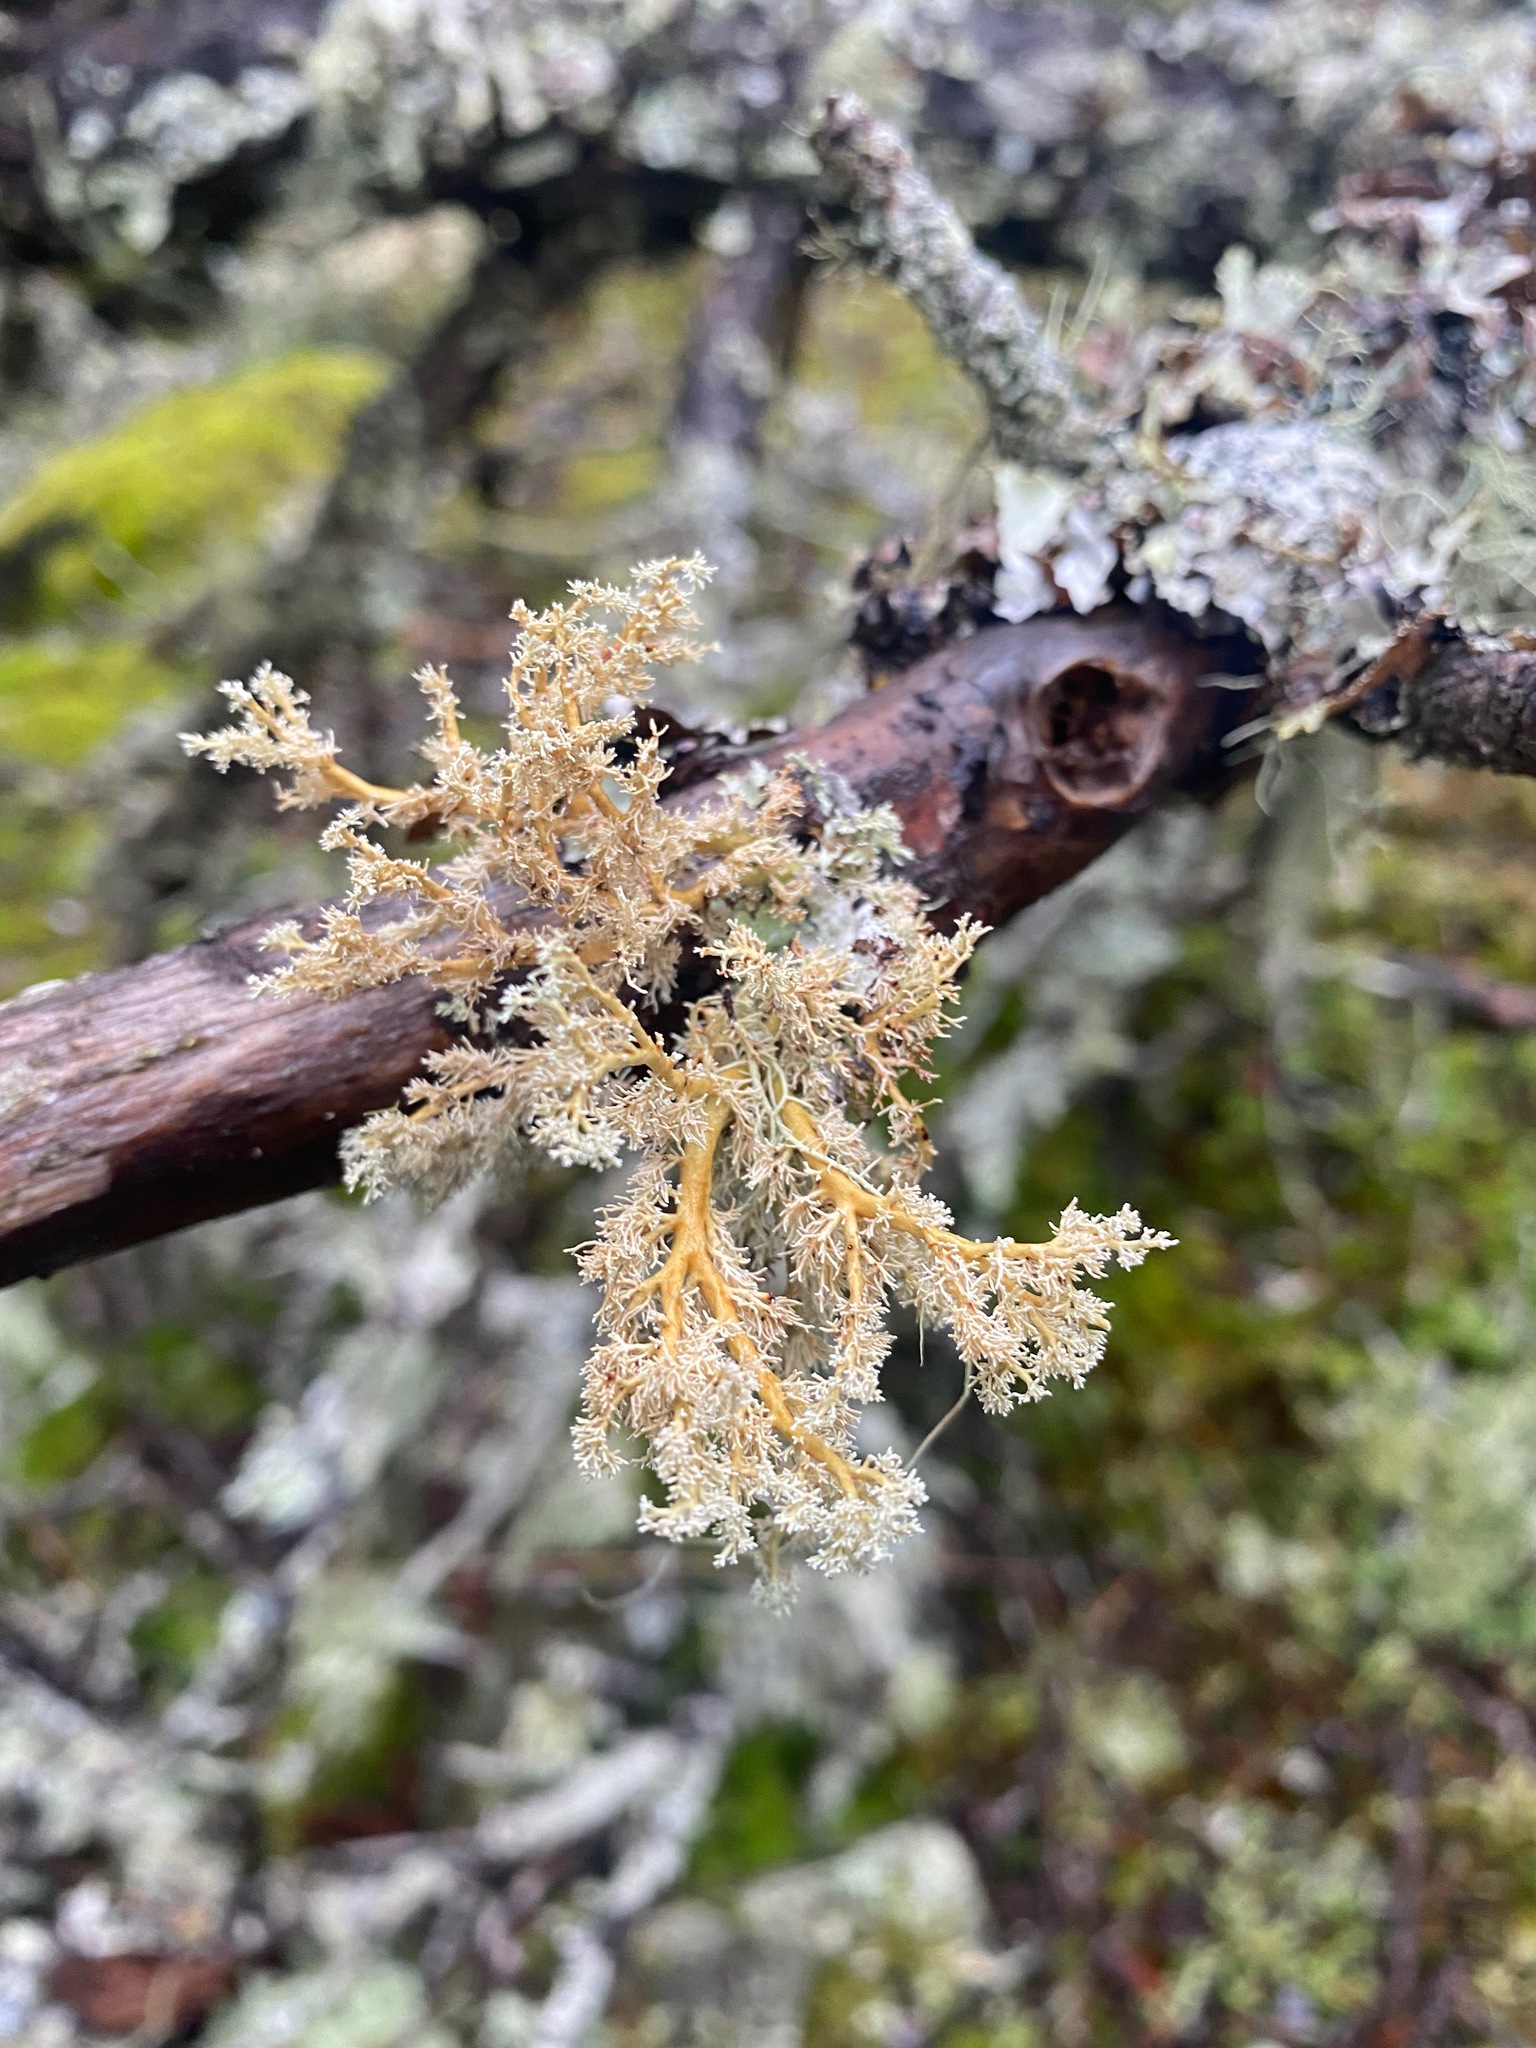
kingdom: Fungi
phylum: Ascomycota
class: Lecanoromycetes
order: Lecanorales
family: Sphaerophoraceae
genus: Sphaerophorus
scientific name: Sphaerophorus globosus
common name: Globe ball lichen
